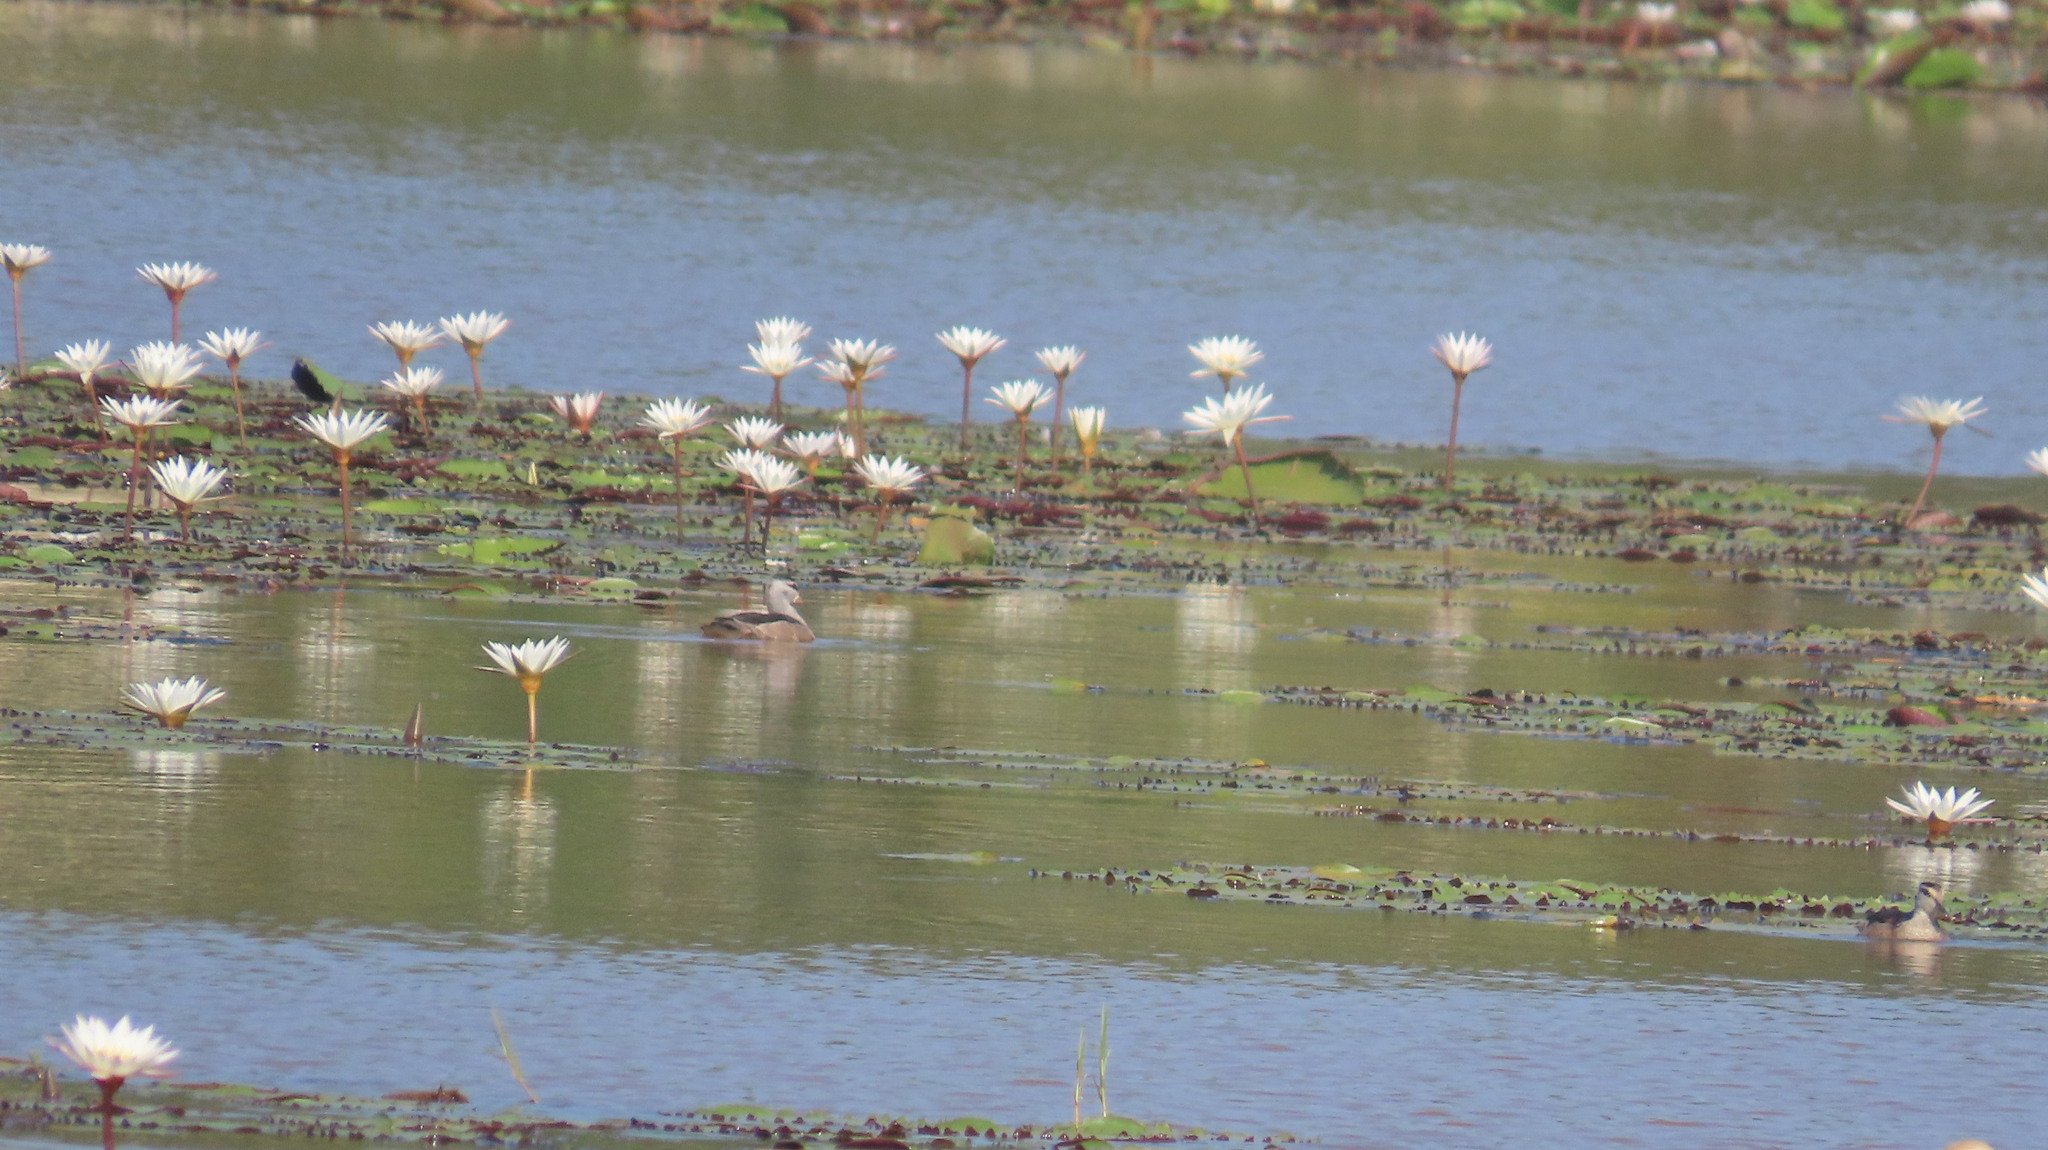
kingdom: Animalia
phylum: Chordata
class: Aves
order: Anseriformes
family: Anatidae
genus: Nettapus
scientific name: Nettapus coromandelianus
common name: Cotton pygmy-goose
